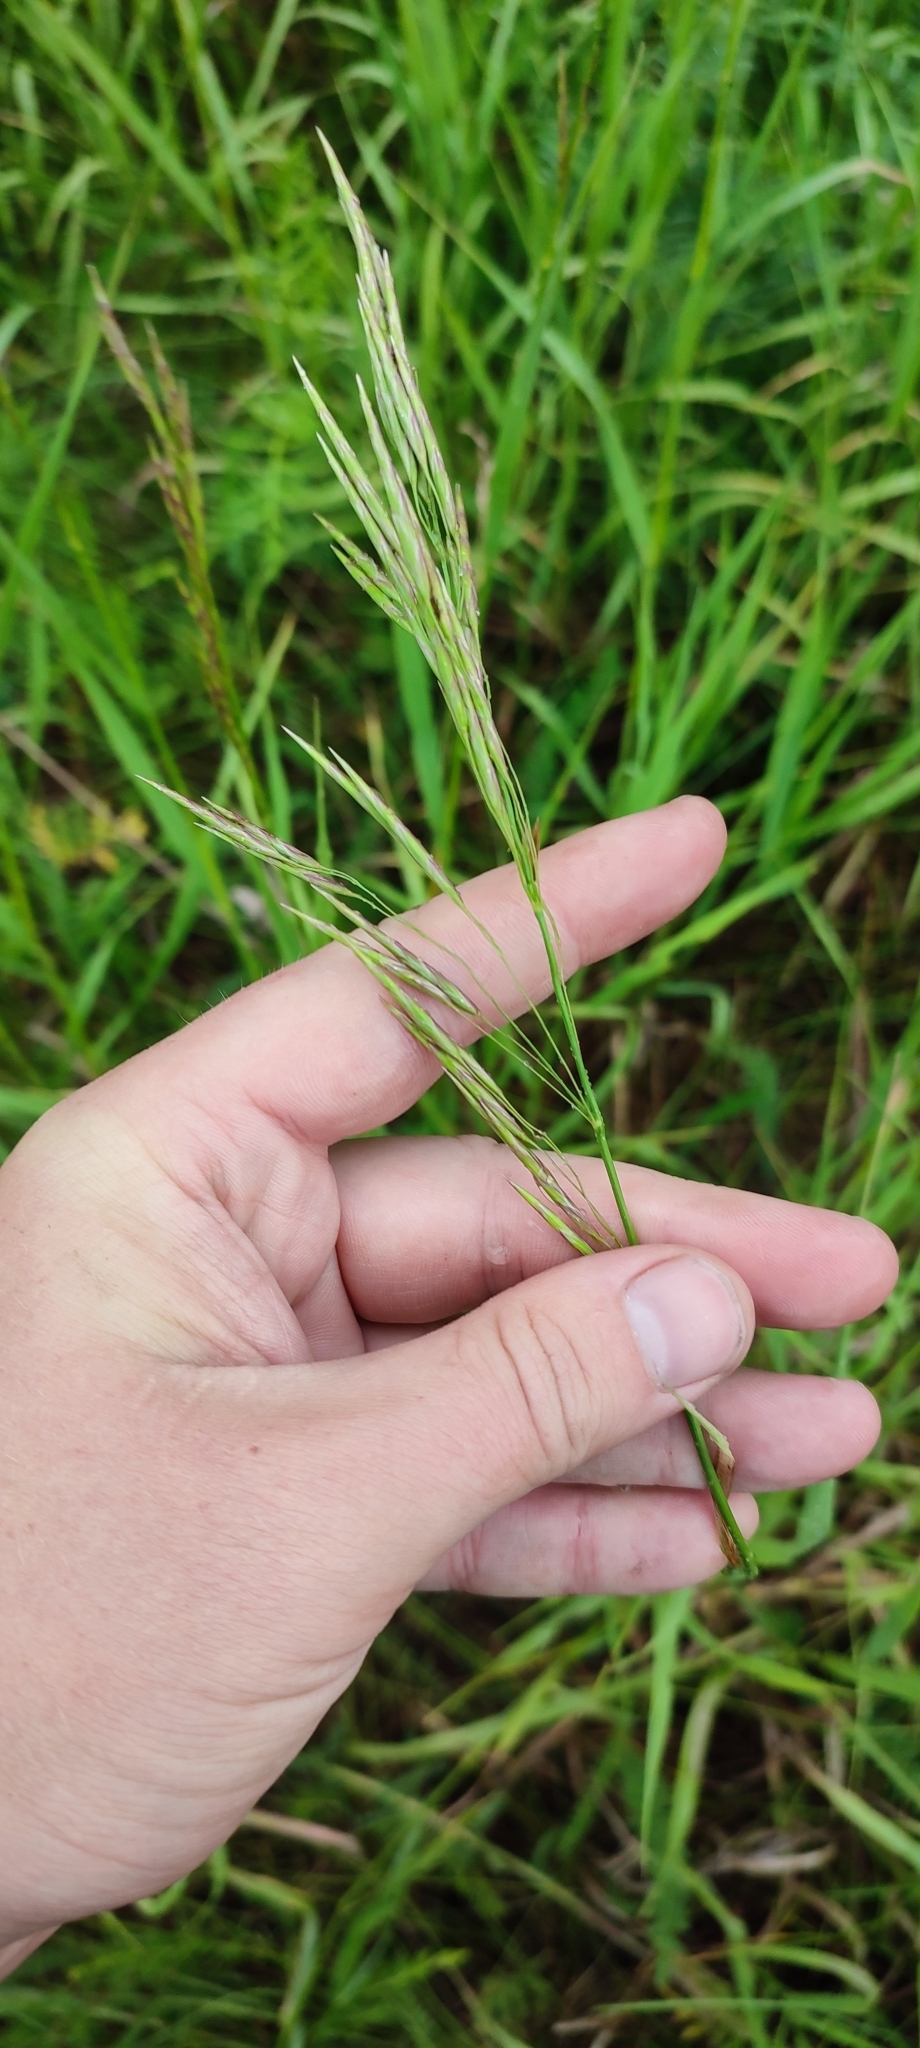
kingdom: Plantae
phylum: Tracheophyta
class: Liliopsida
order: Poales
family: Poaceae
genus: Bromus
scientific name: Bromus inermis
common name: Smooth brome
